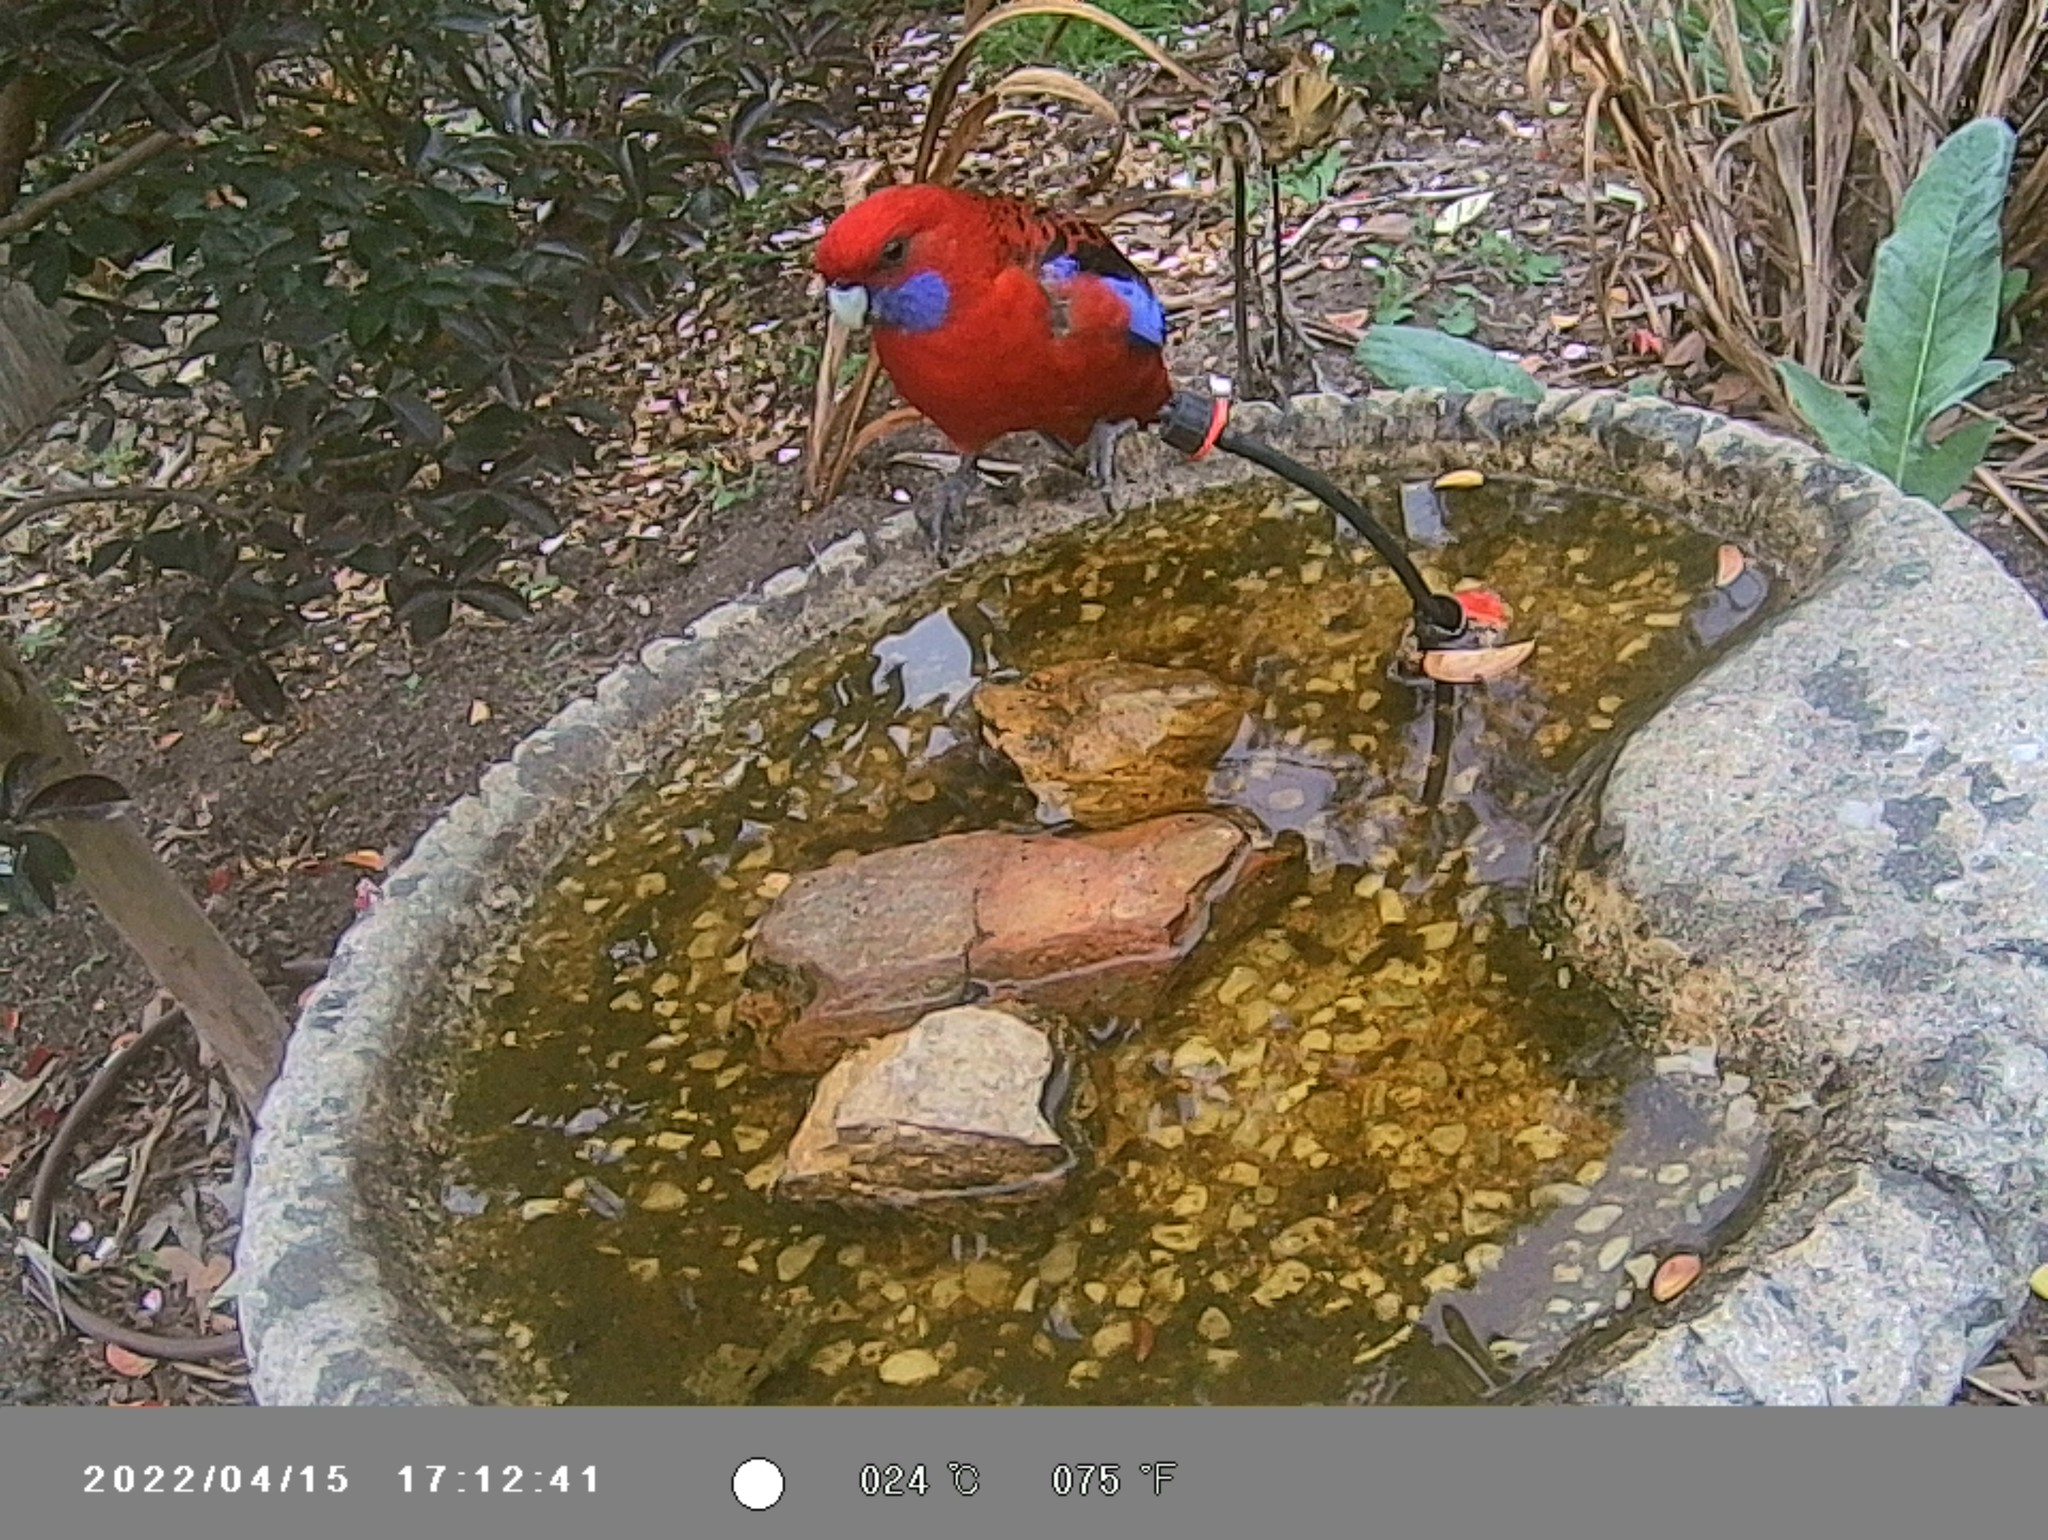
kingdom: Animalia
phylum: Chordata
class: Aves
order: Psittaciformes
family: Psittacidae
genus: Platycercus
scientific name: Platycercus elegans
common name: Crimson rosella
